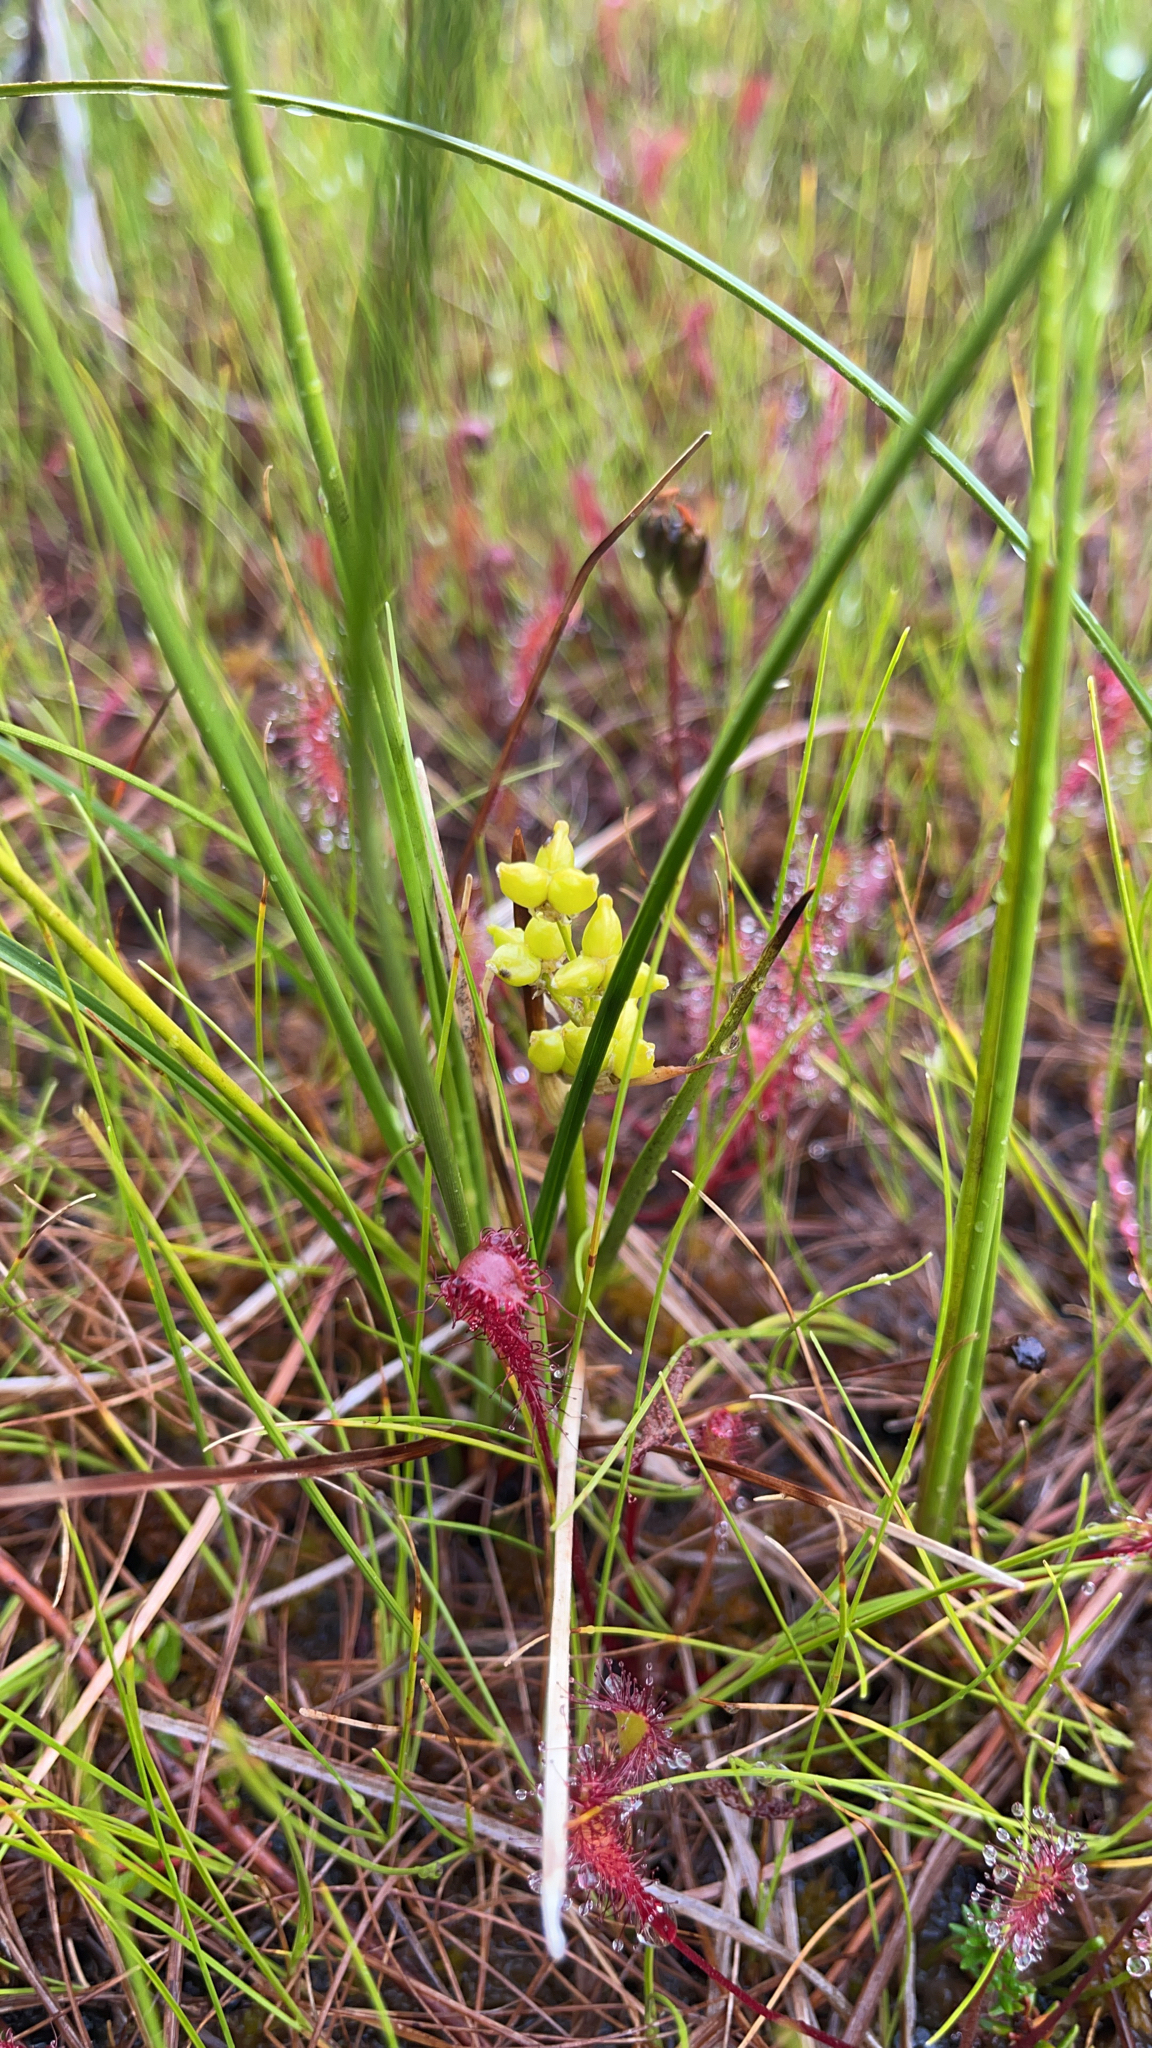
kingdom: Plantae
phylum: Tracheophyta
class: Liliopsida
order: Alismatales
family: Scheuchzeriaceae
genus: Scheuchzeria
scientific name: Scheuchzeria palustris
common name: Rannoch-rush
